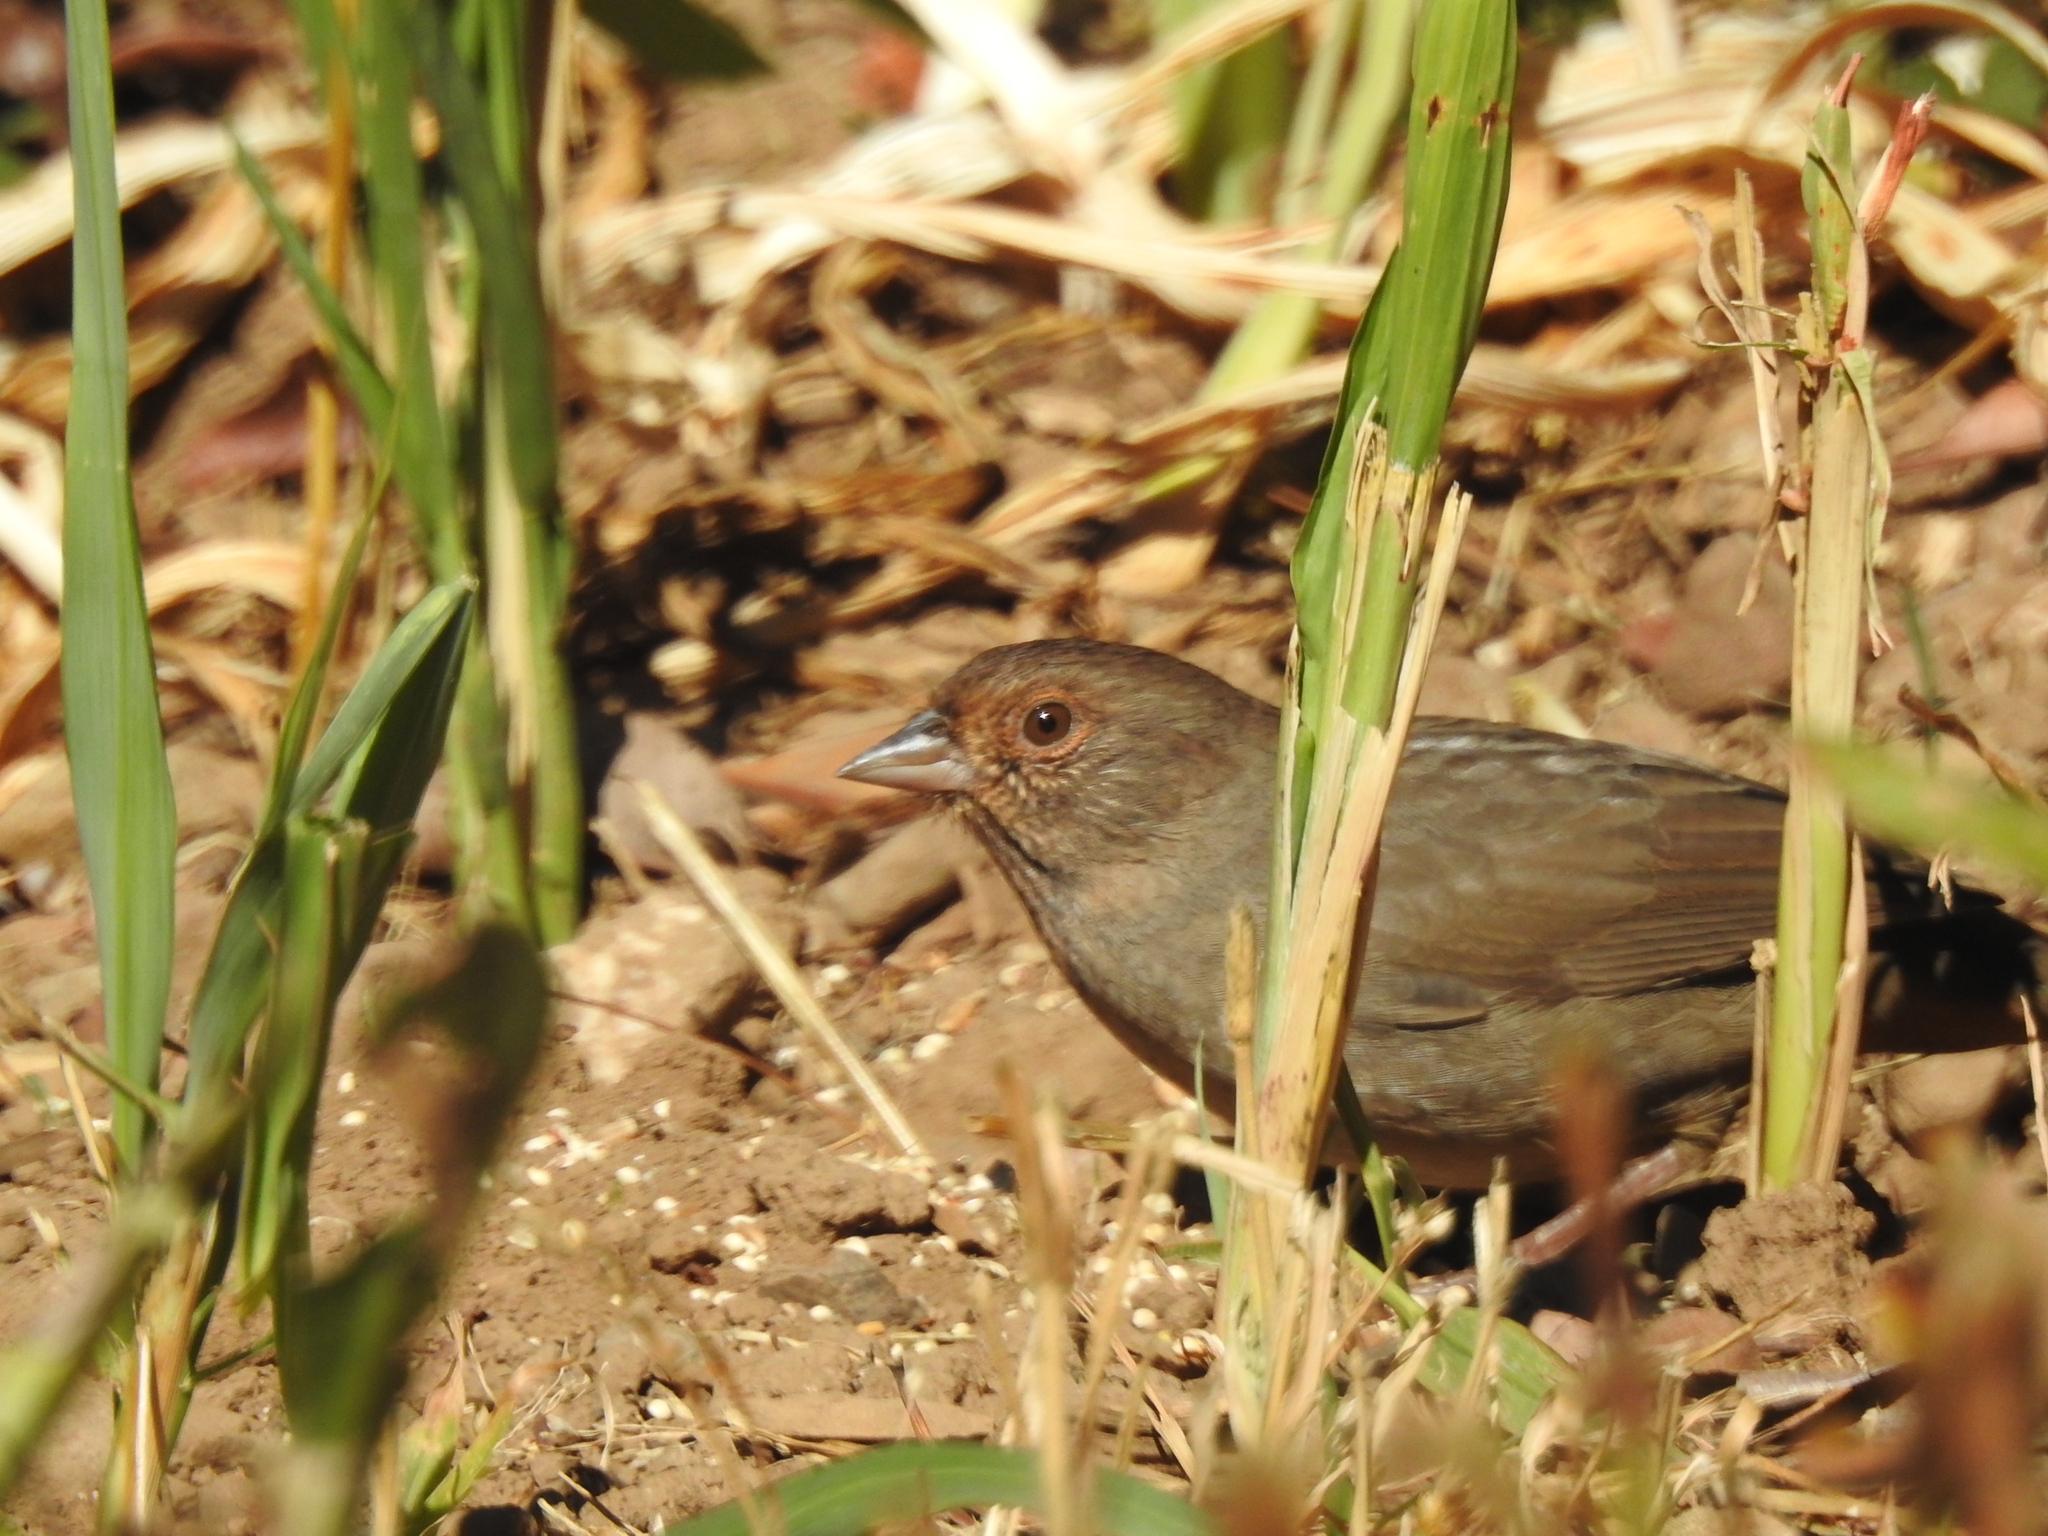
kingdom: Animalia
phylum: Chordata
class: Aves
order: Passeriformes
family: Passerellidae
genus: Melozone
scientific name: Melozone crissalis
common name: California towhee
